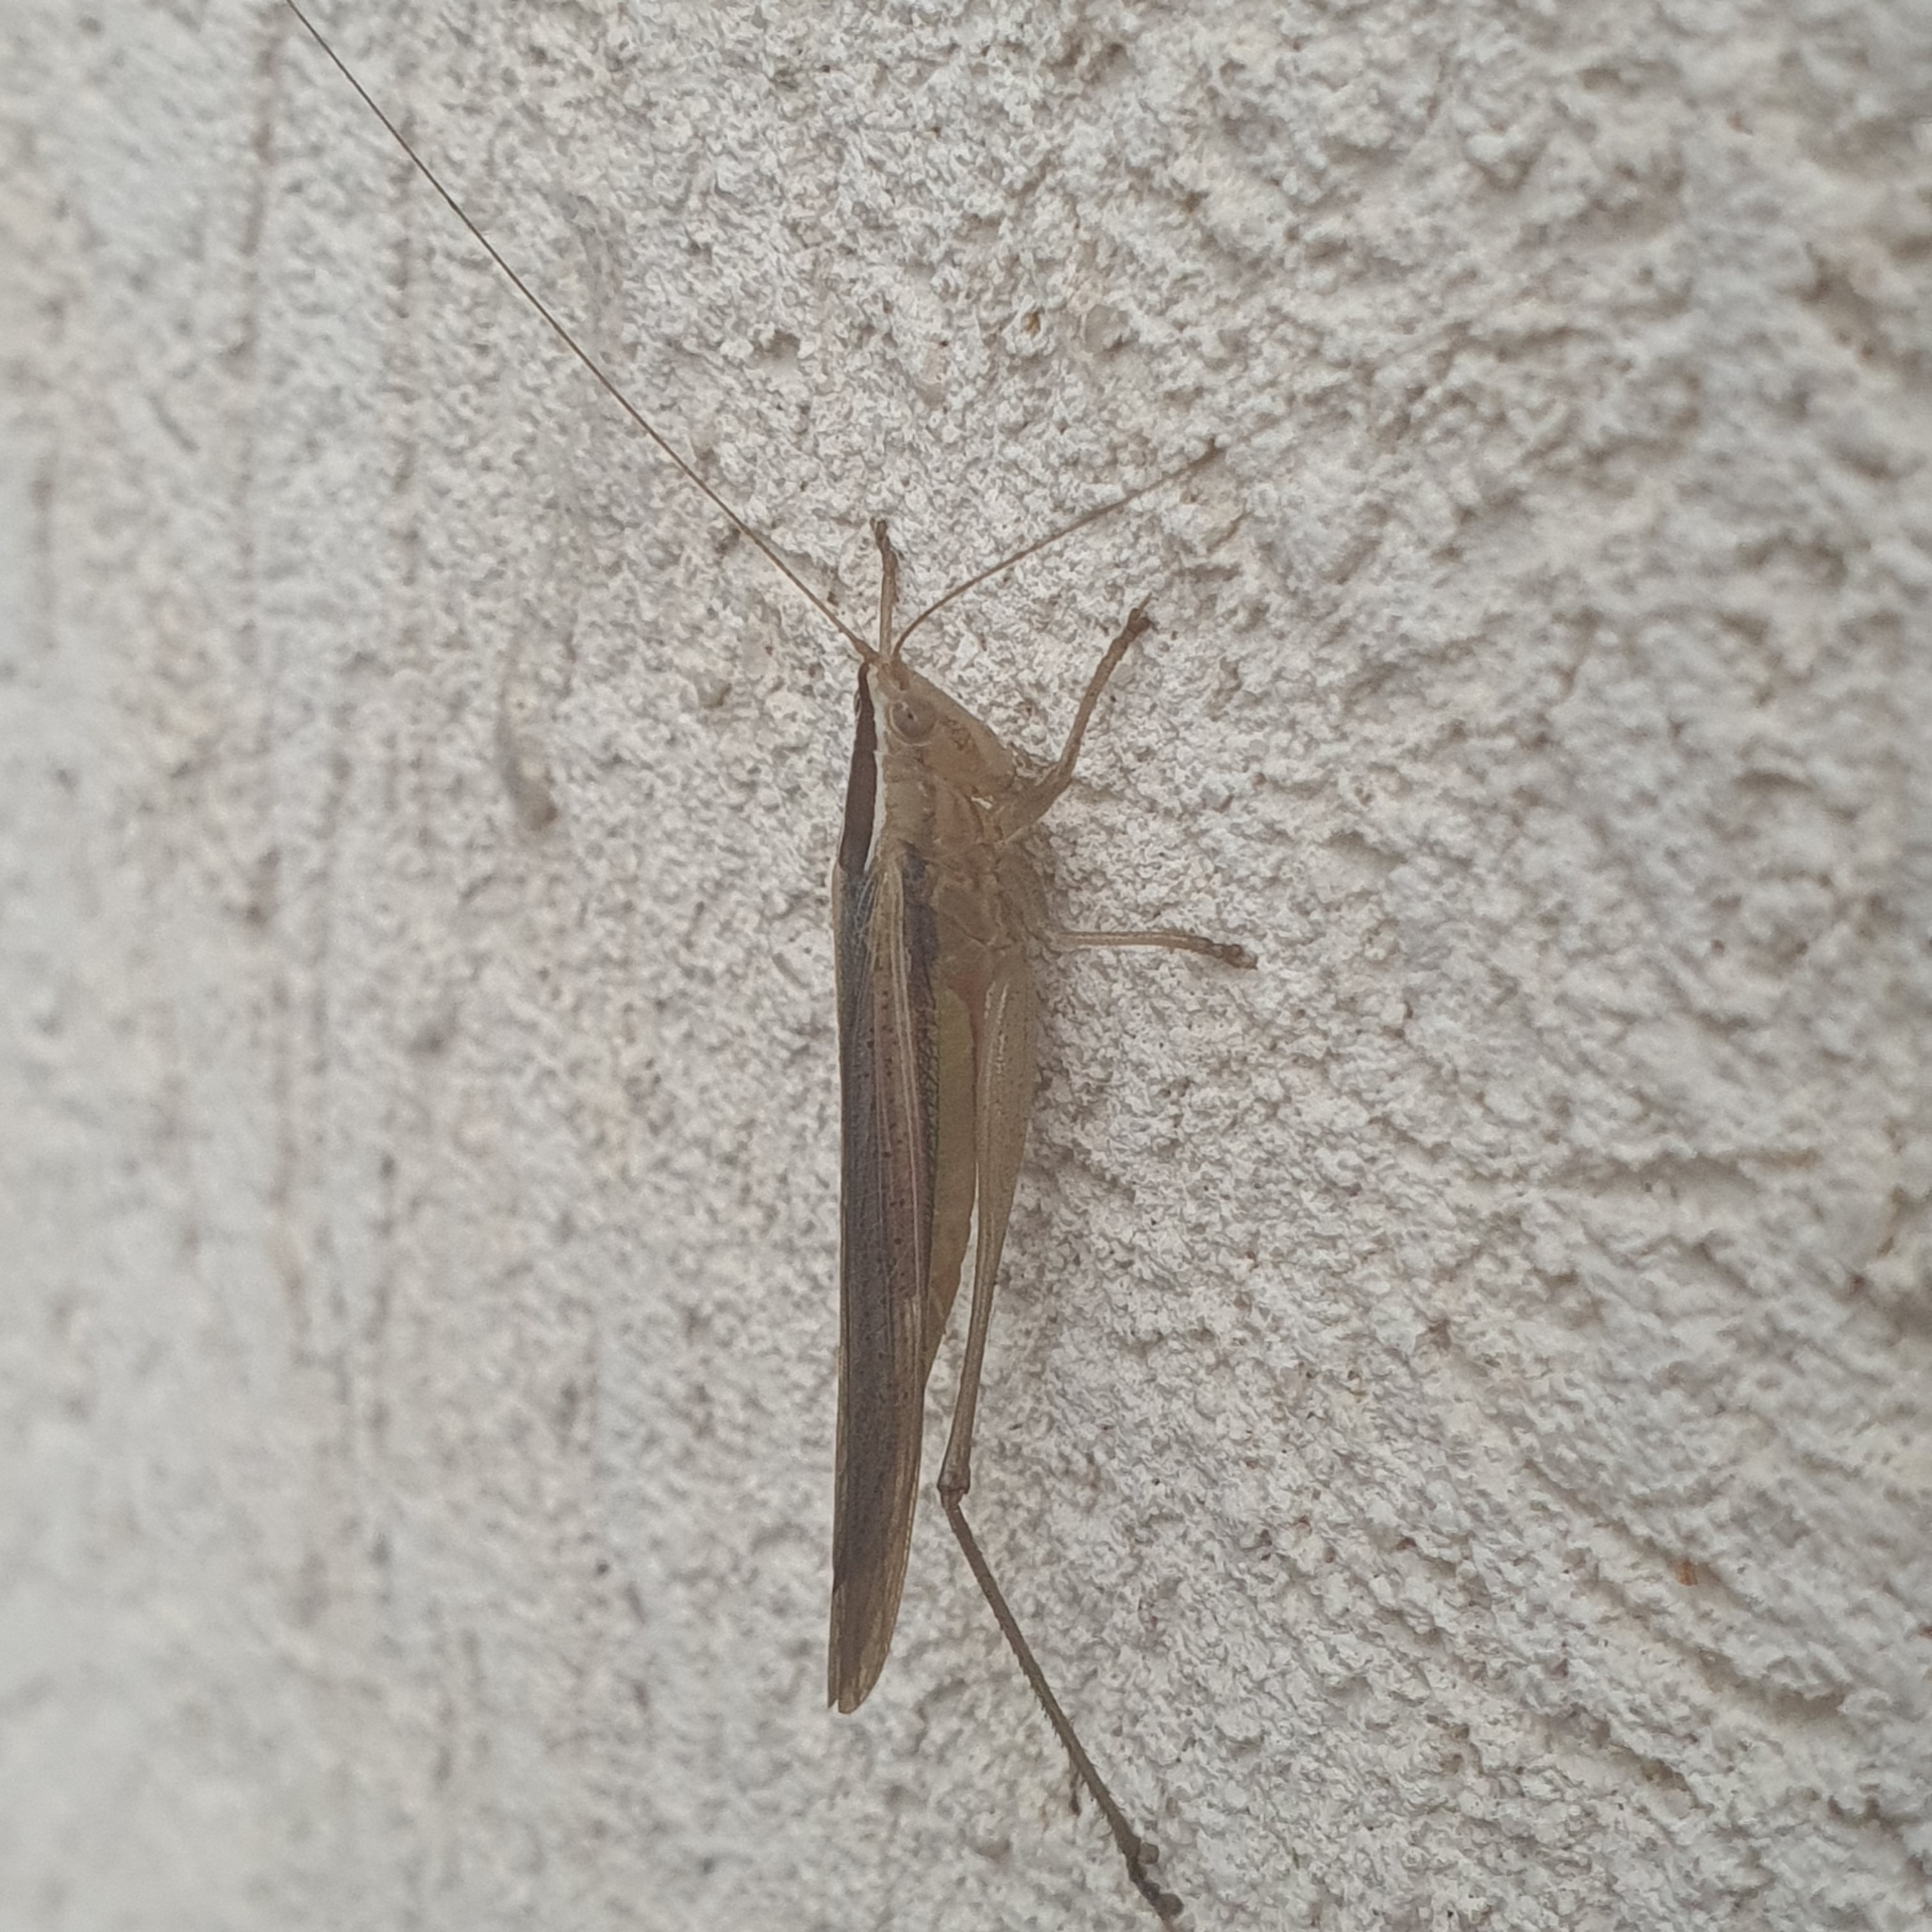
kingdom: Animalia
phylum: Arthropoda
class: Insecta
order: Orthoptera
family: Tettigoniidae
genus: Conocephalus
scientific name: Conocephalus upoluensis
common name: Upolu meadow katydid
